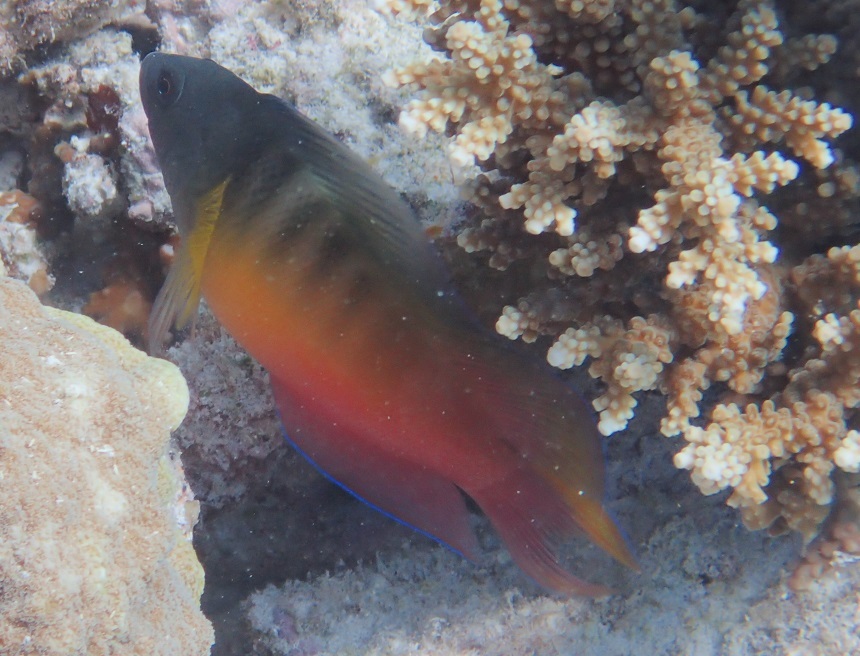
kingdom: Animalia
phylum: Chordata
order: Perciformes
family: Pseudochromidae
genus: Ogilbyina
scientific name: Ogilbyina queenslandiae
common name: Queensland dottyback
